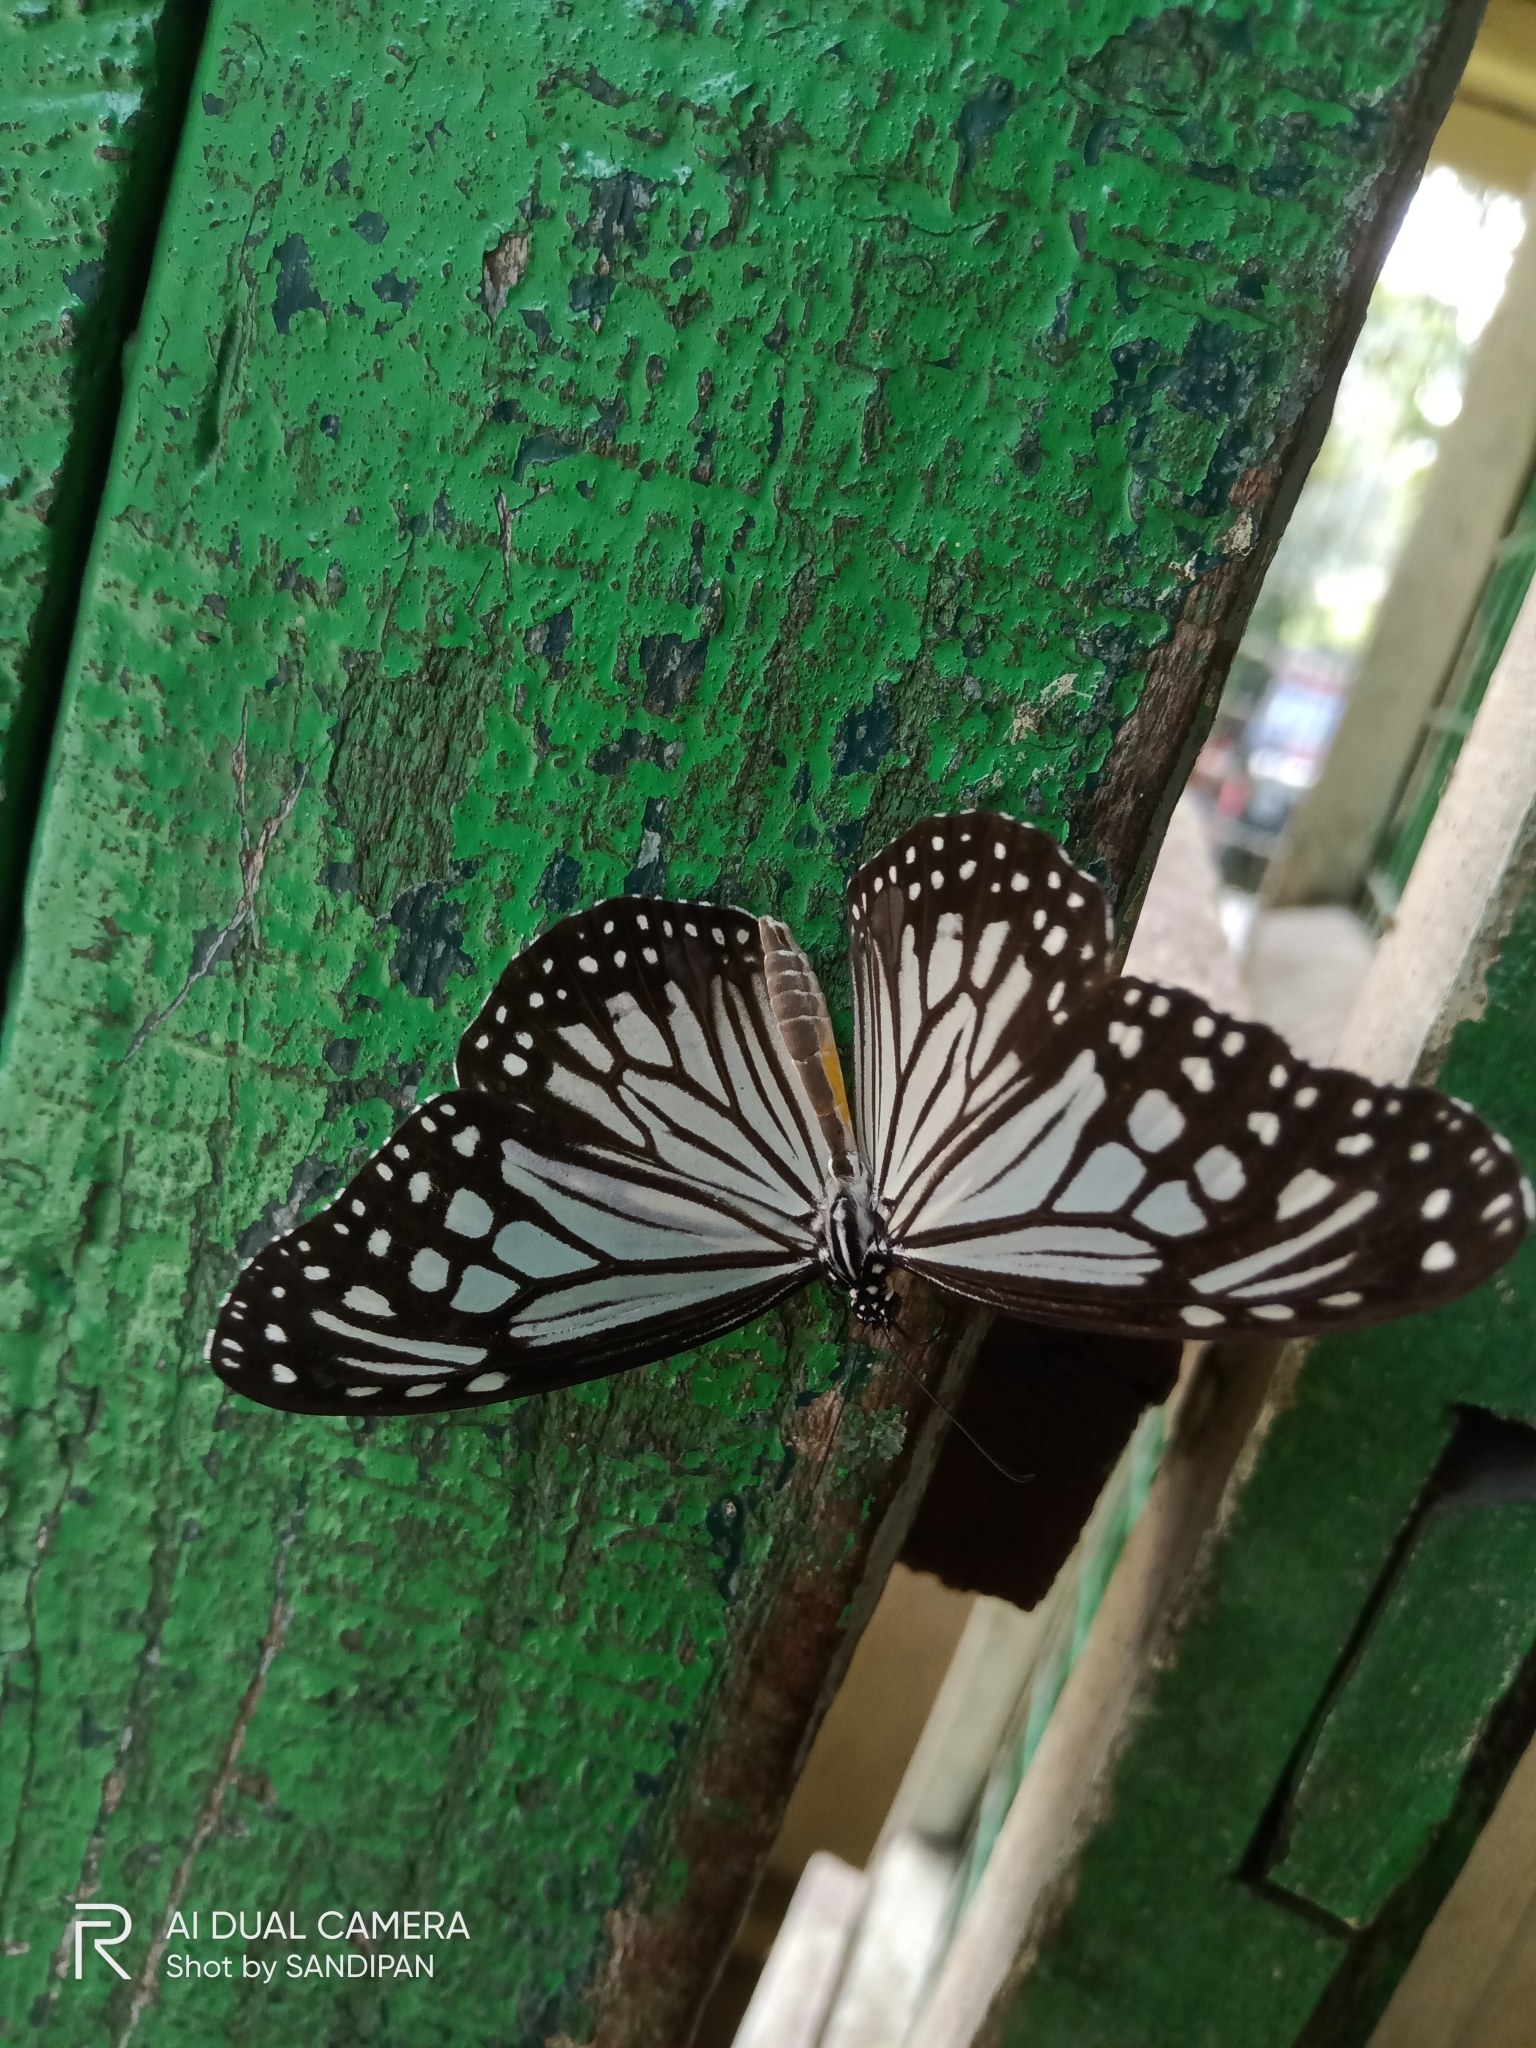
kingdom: Animalia
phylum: Arthropoda
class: Insecta
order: Lepidoptera
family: Nymphalidae
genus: Parantica
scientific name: Parantica aglea
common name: Glassy tiger
